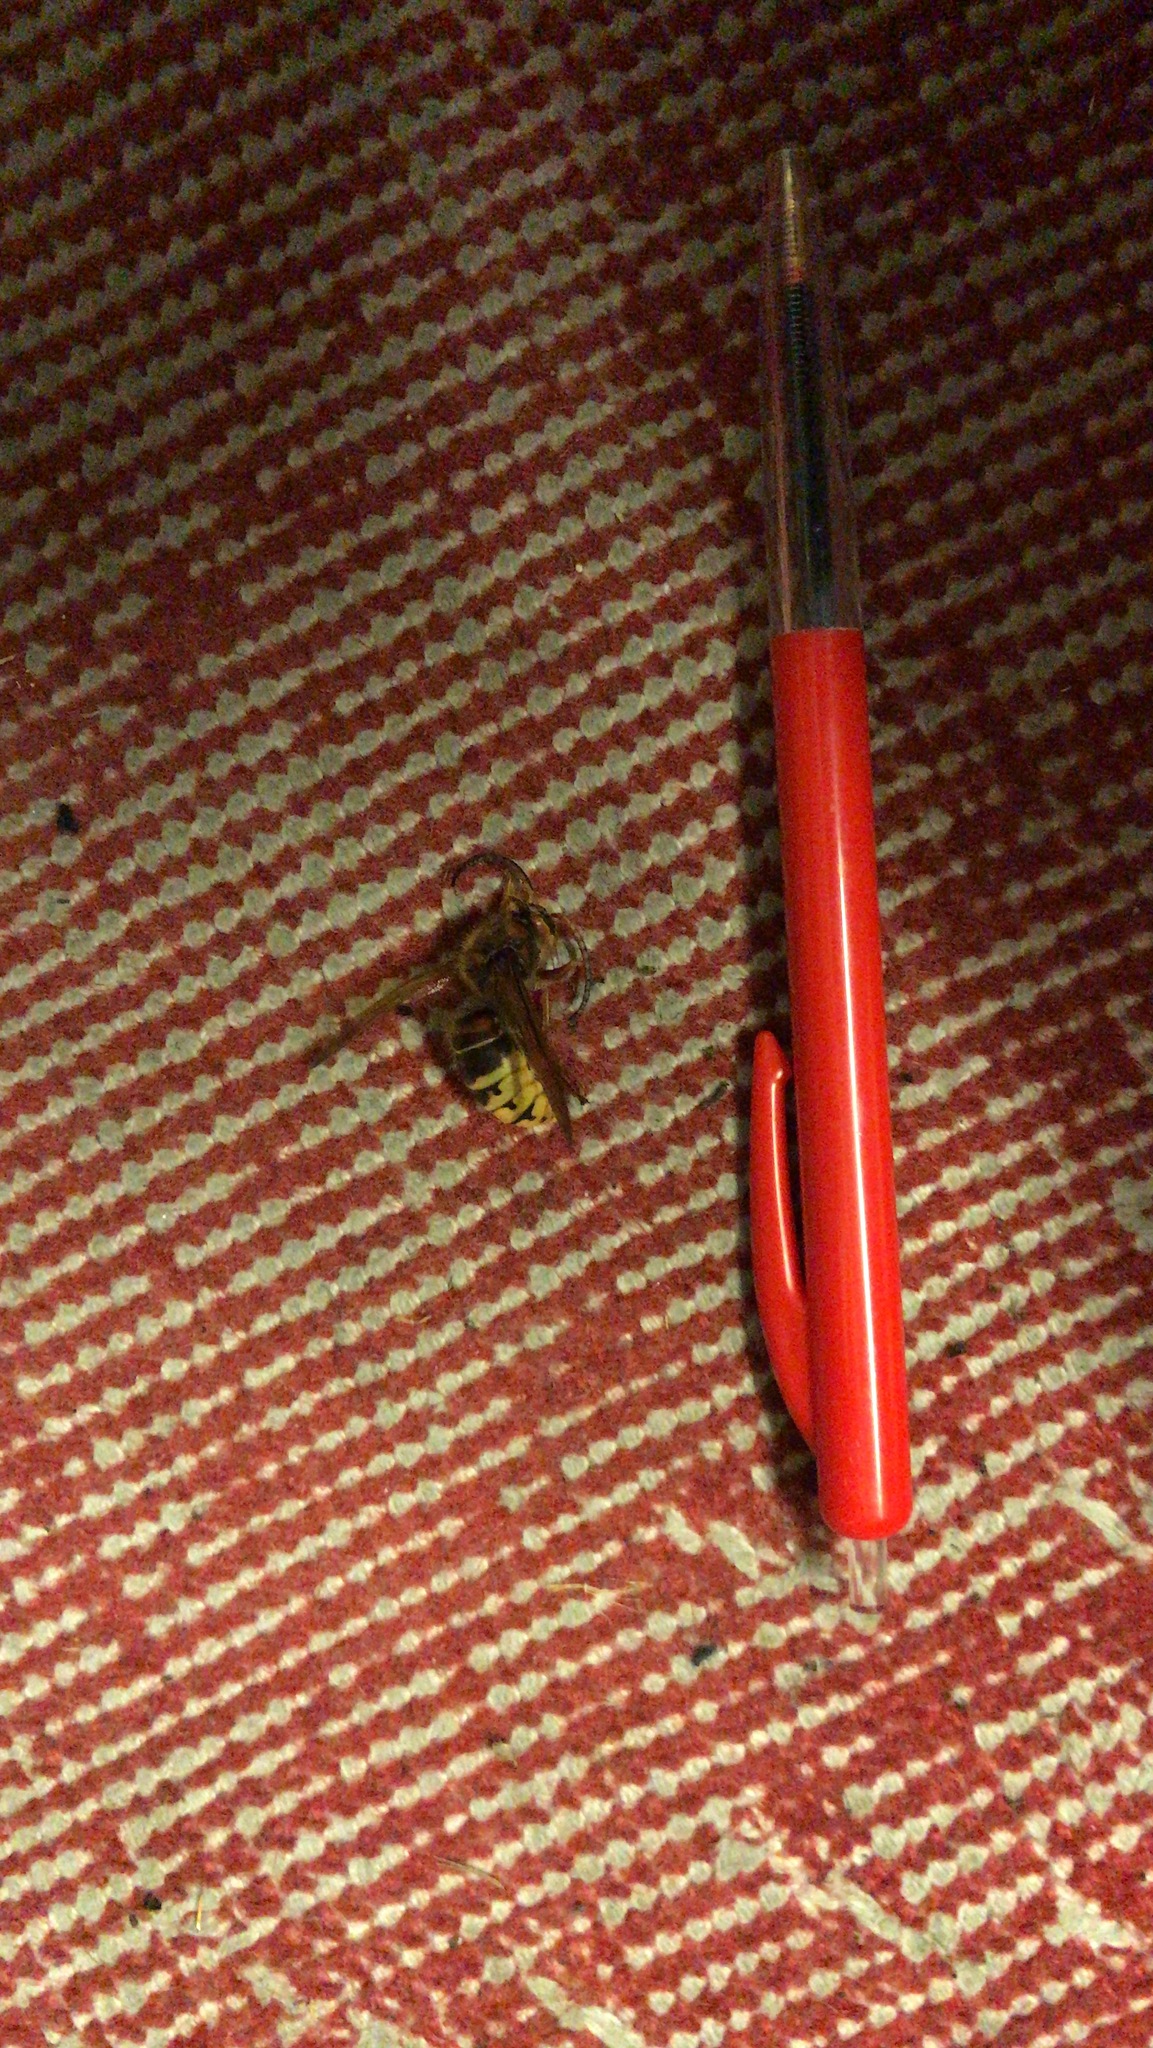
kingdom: Animalia
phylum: Arthropoda
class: Insecta
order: Hymenoptera
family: Vespidae
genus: Vespa
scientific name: Vespa crabro
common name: Hornet
